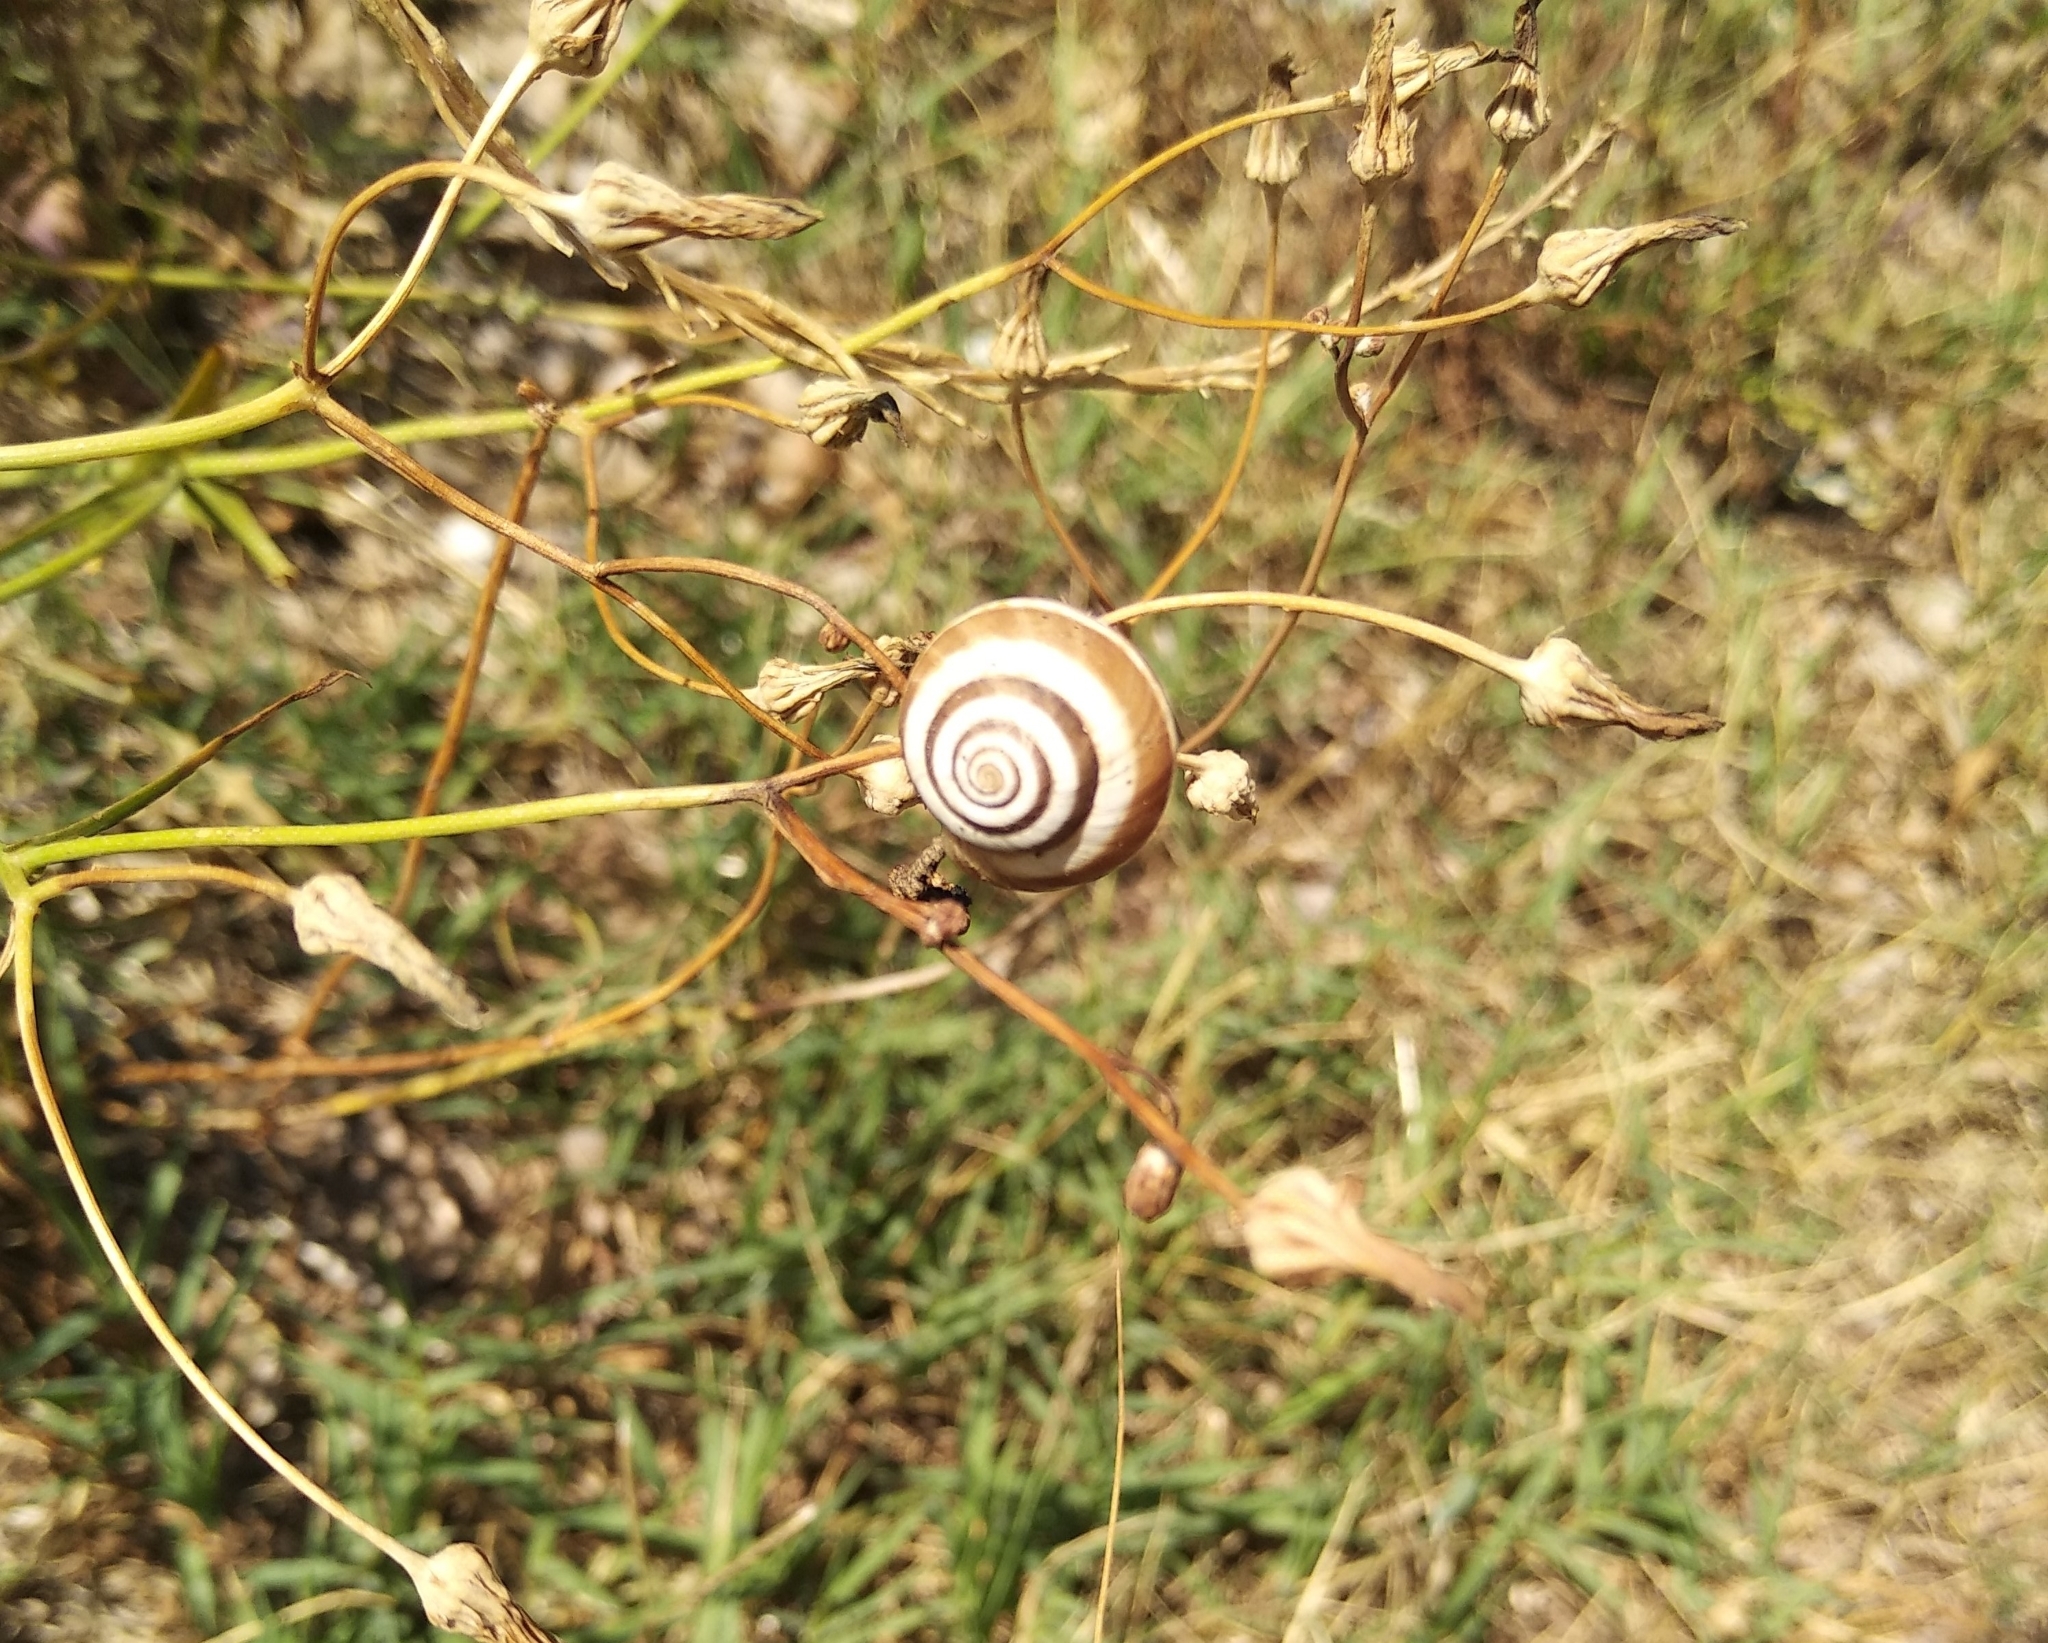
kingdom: Animalia
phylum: Mollusca
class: Gastropoda
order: Stylommatophora
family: Geomitridae
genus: Cernuella
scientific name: Cernuella virgata
